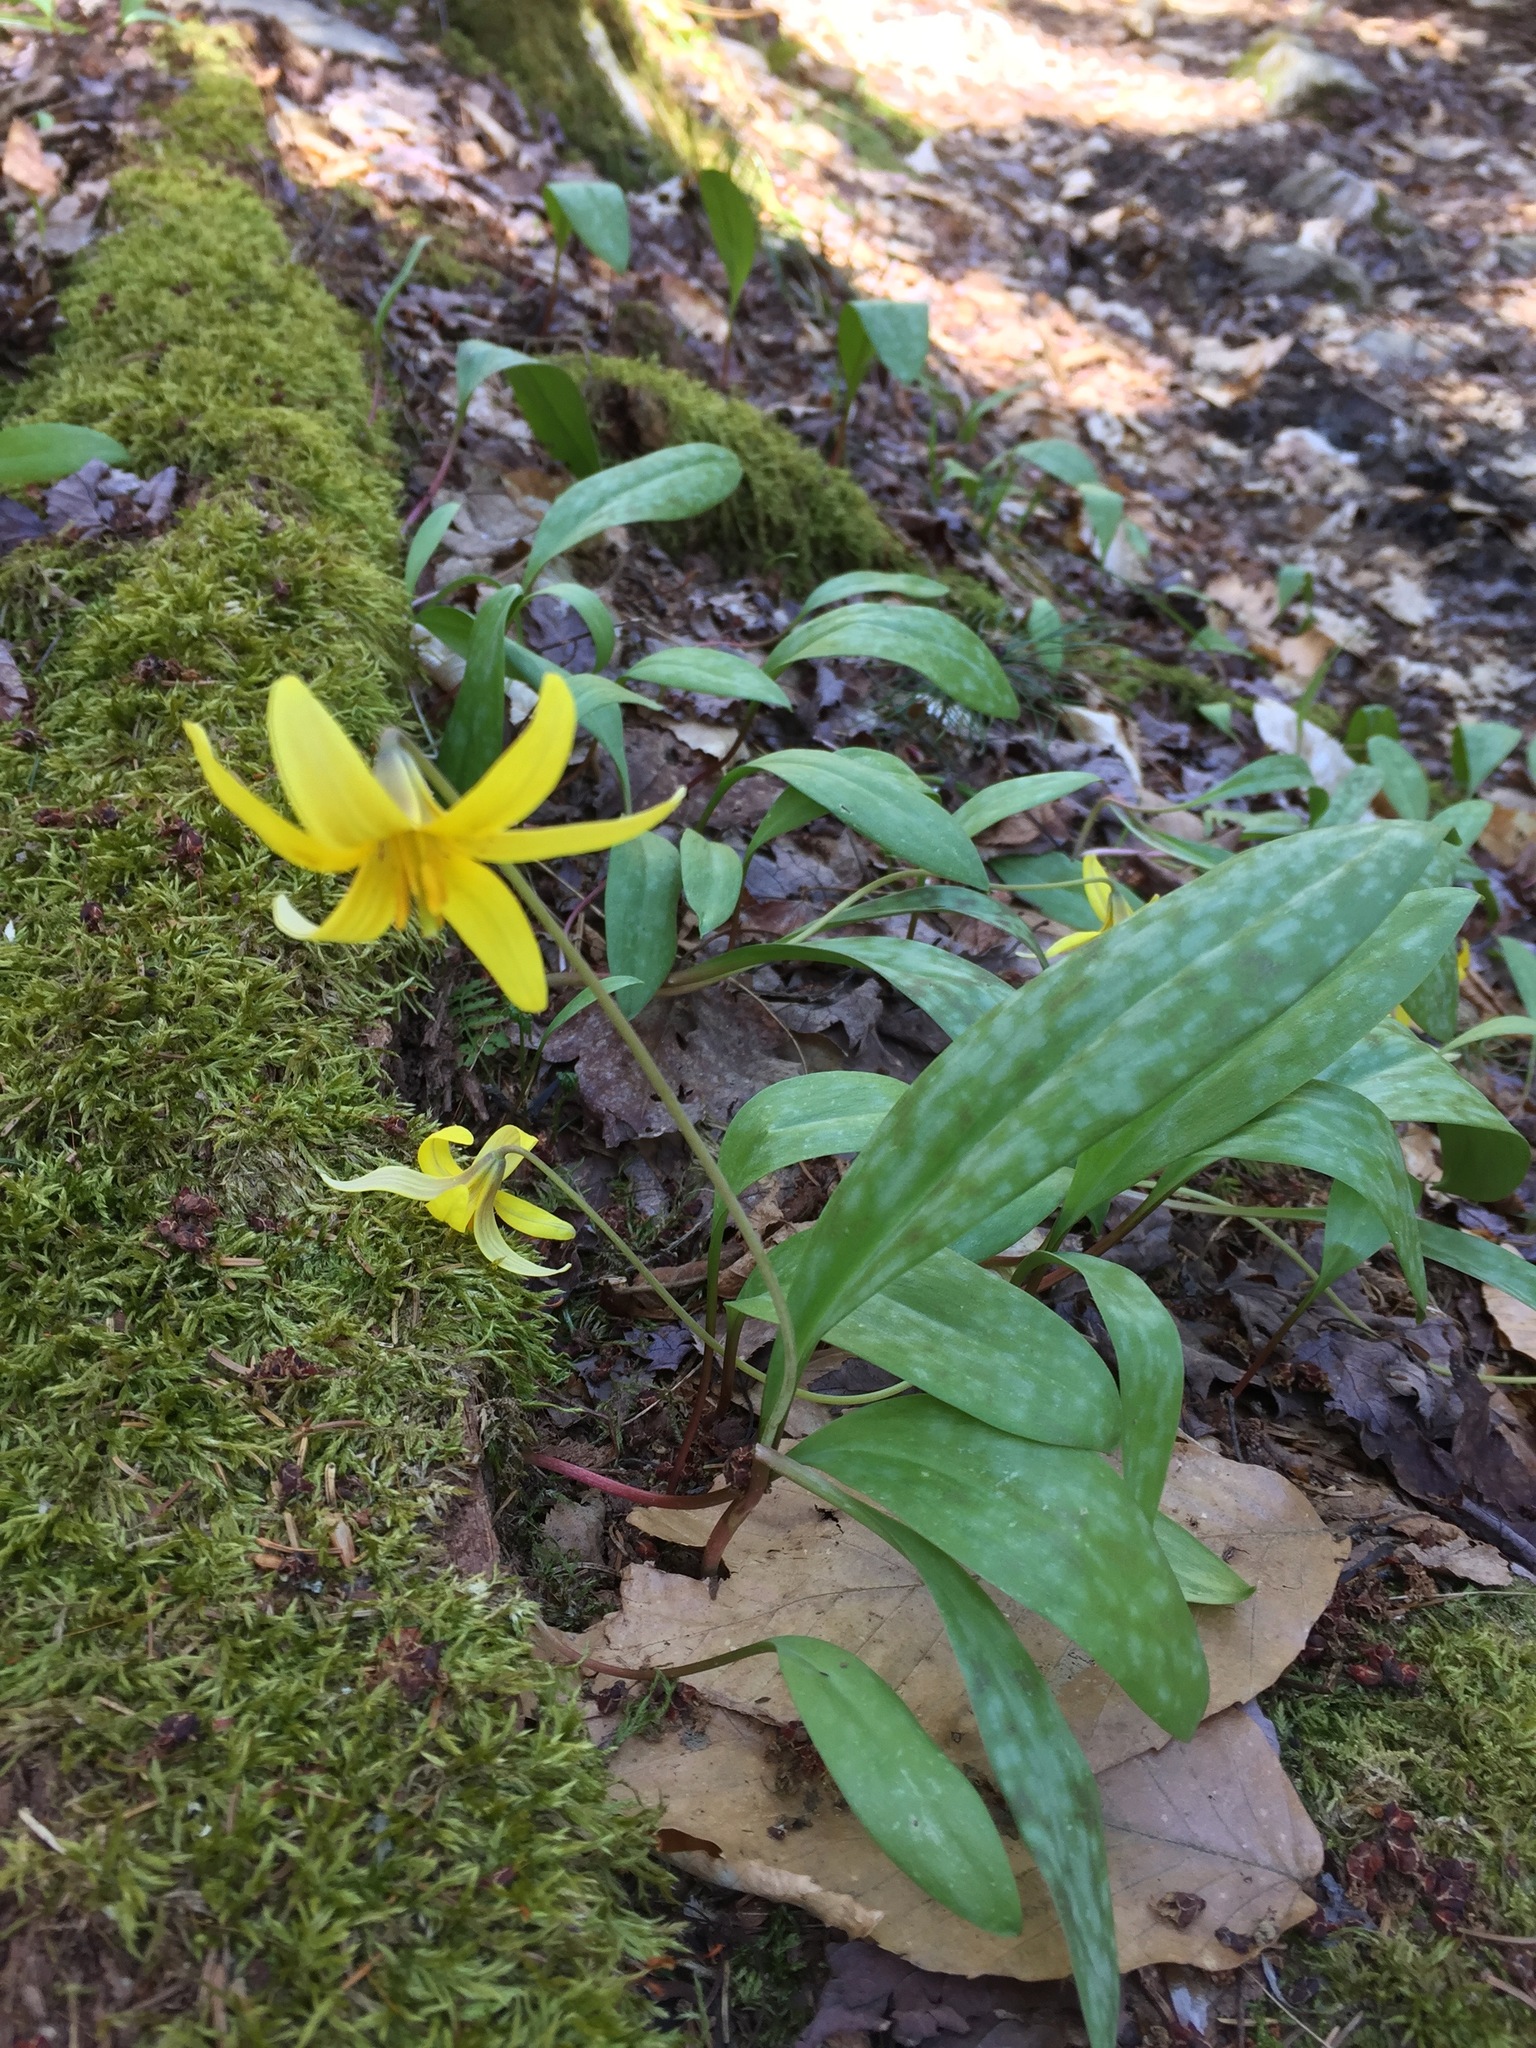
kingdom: Plantae
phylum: Tracheophyta
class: Liliopsida
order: Liliales
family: Liliaceae
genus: Erythronium
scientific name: Erythronium americanum
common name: Yellow adder's-tongue
